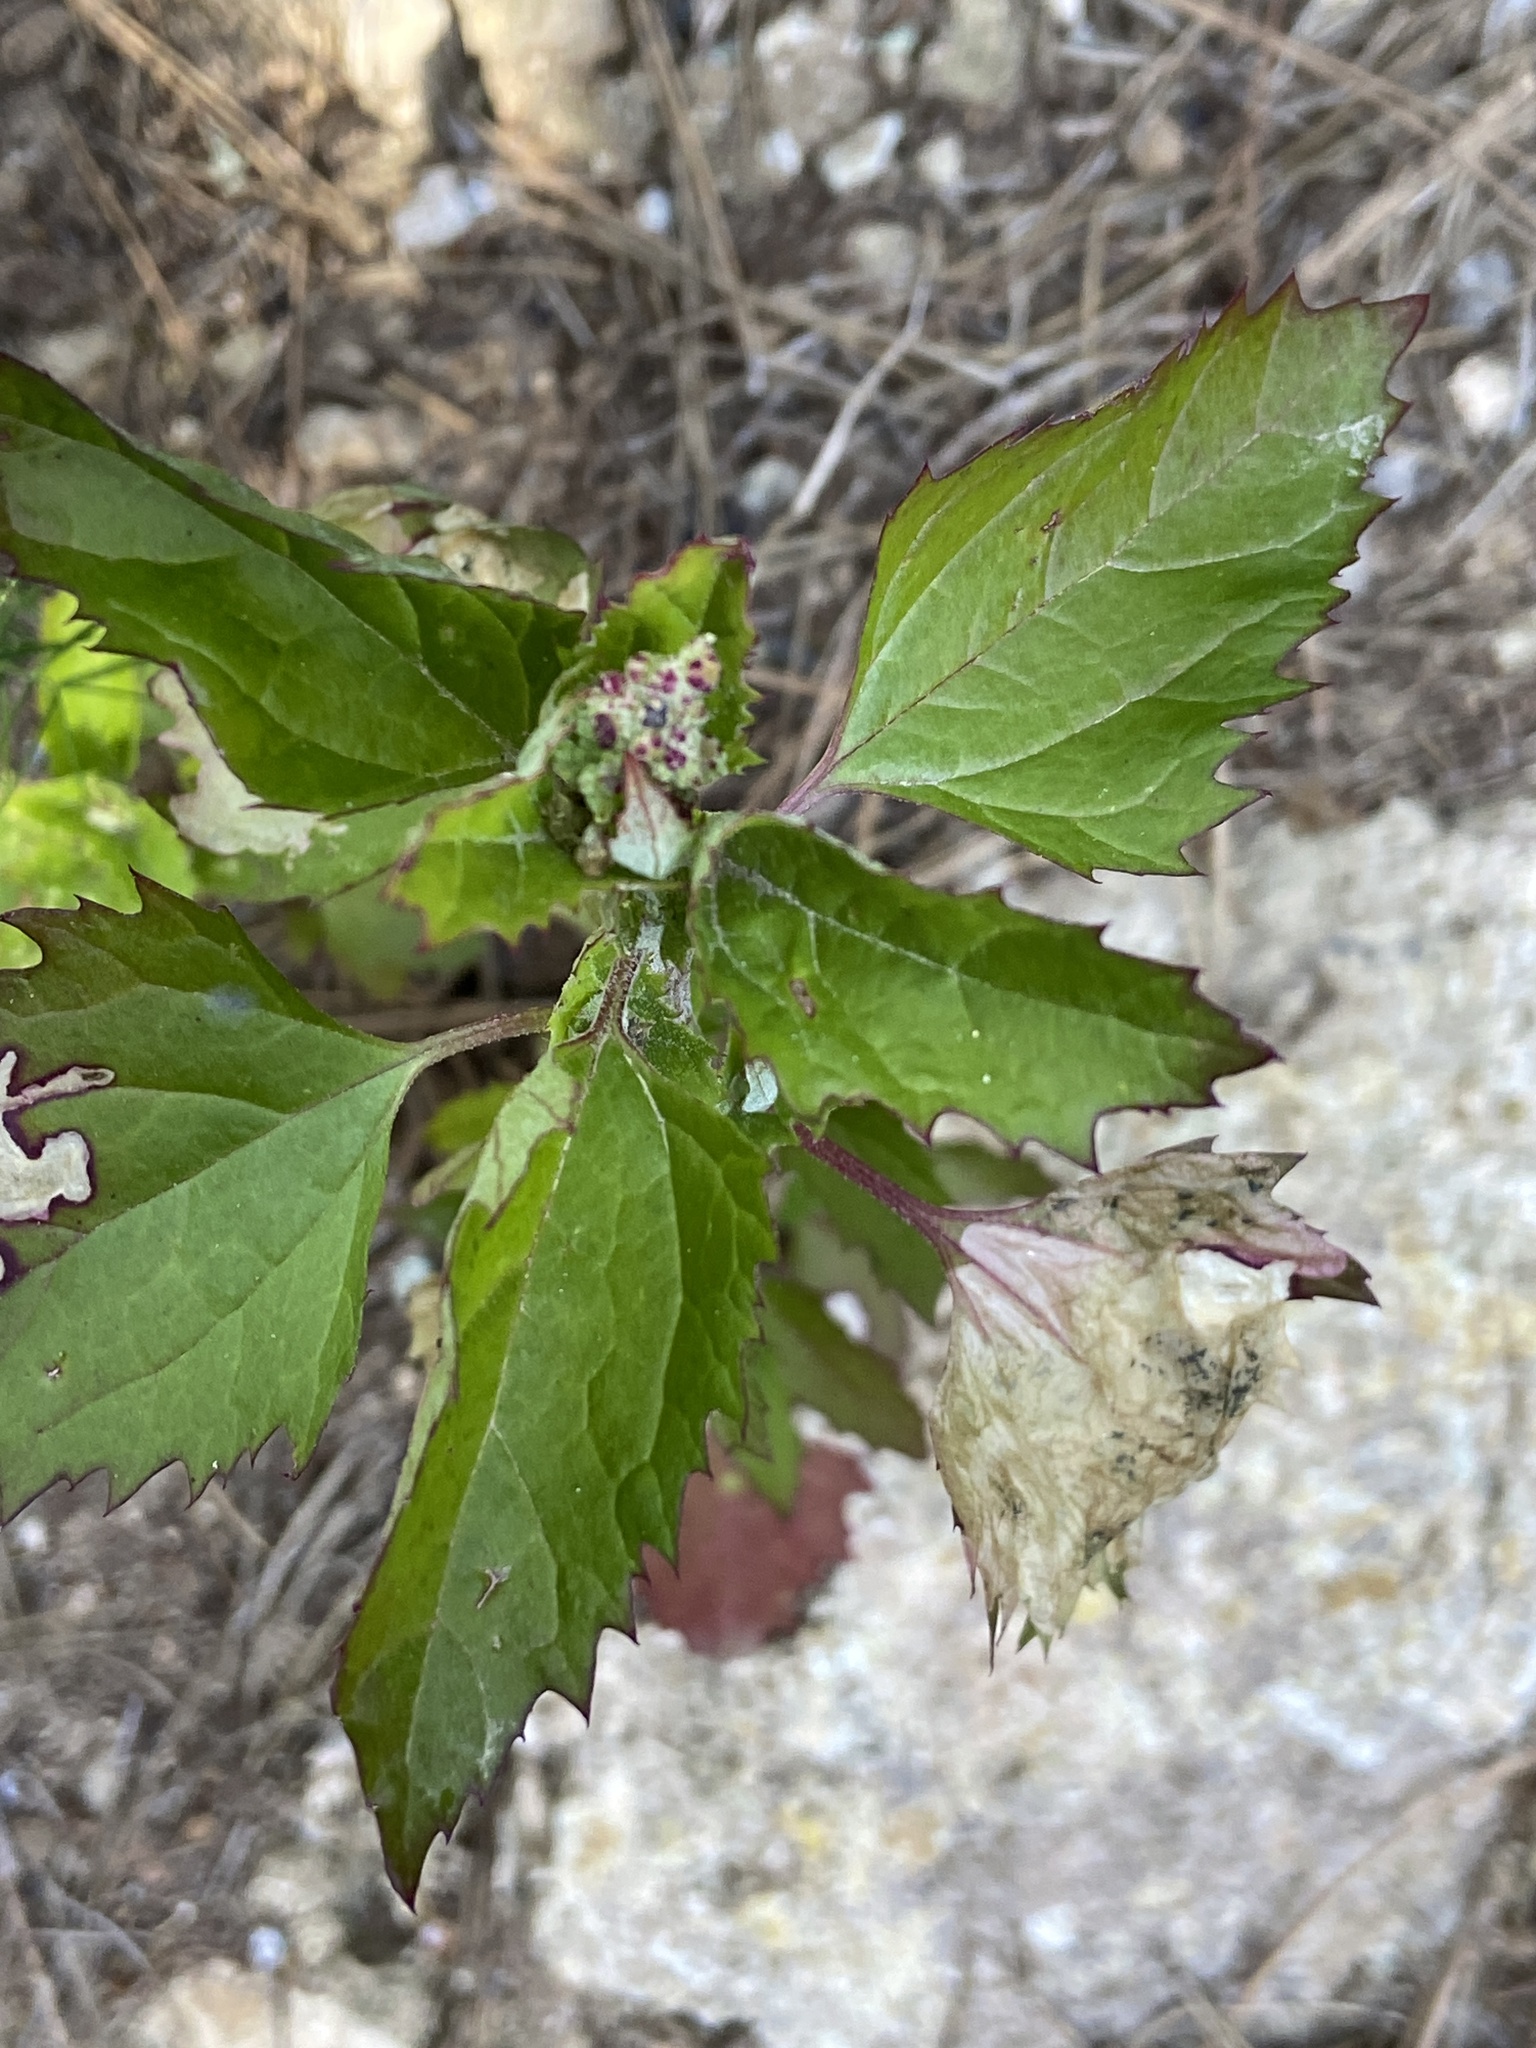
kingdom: Plantae
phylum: Tracheophyta
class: Magnoliopsida
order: Caryophyllales
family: Amaranthaceae
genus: Chenopodiastrum
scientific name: Chenopodiastrum murale
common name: Sowbane
